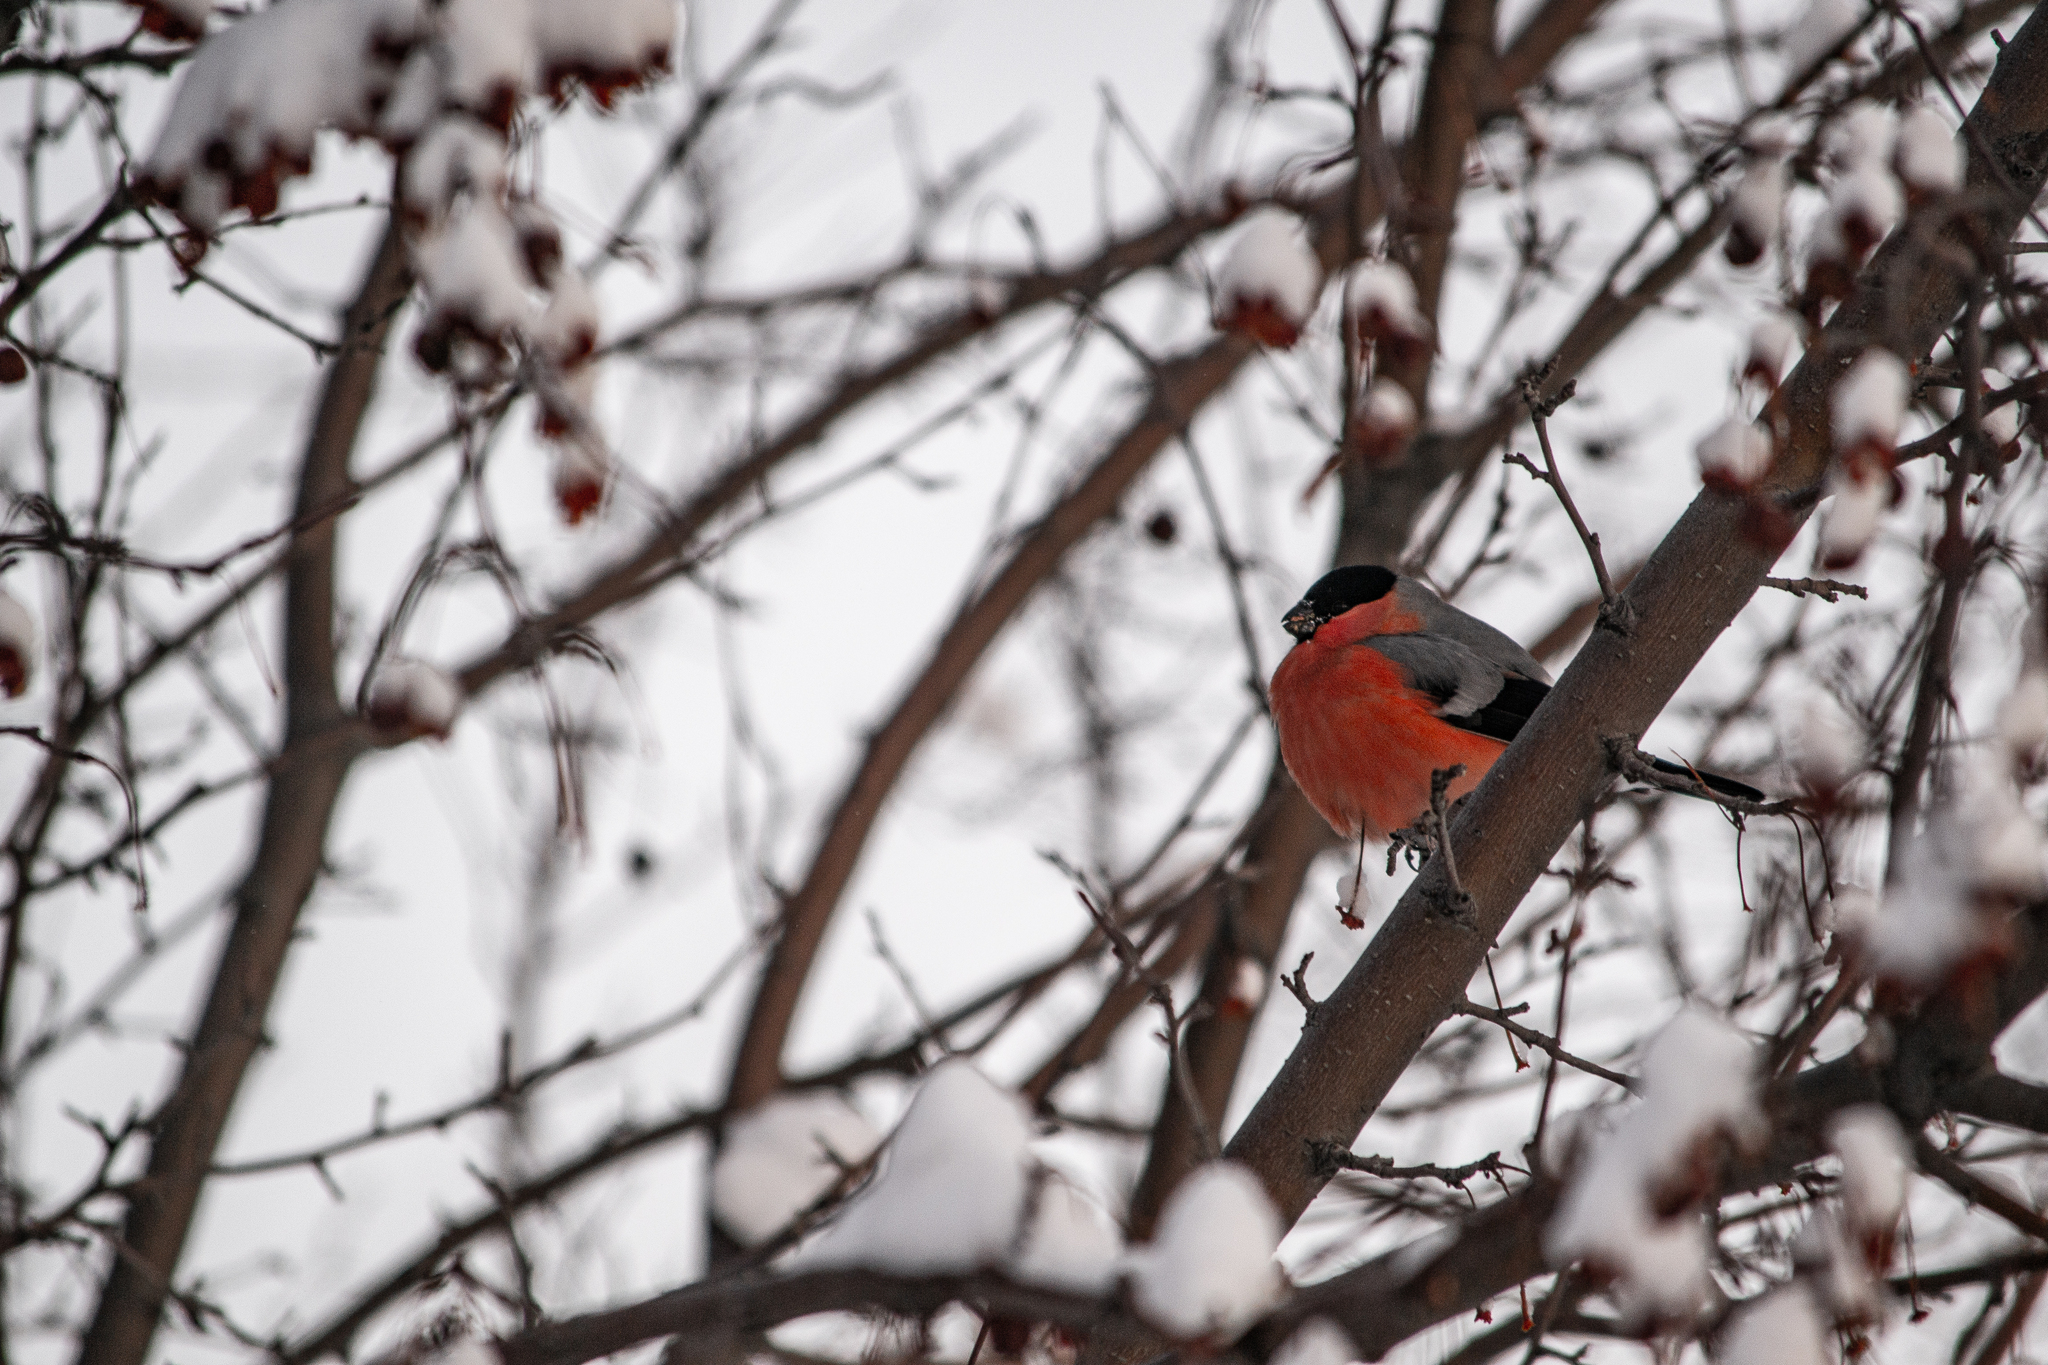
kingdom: Animalia
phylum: Chordata
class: Aves
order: Passeriformes
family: Fringillidae
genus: Pyrrhula
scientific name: Pyrrhula pyrrhula
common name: Eurasian bullfinch
